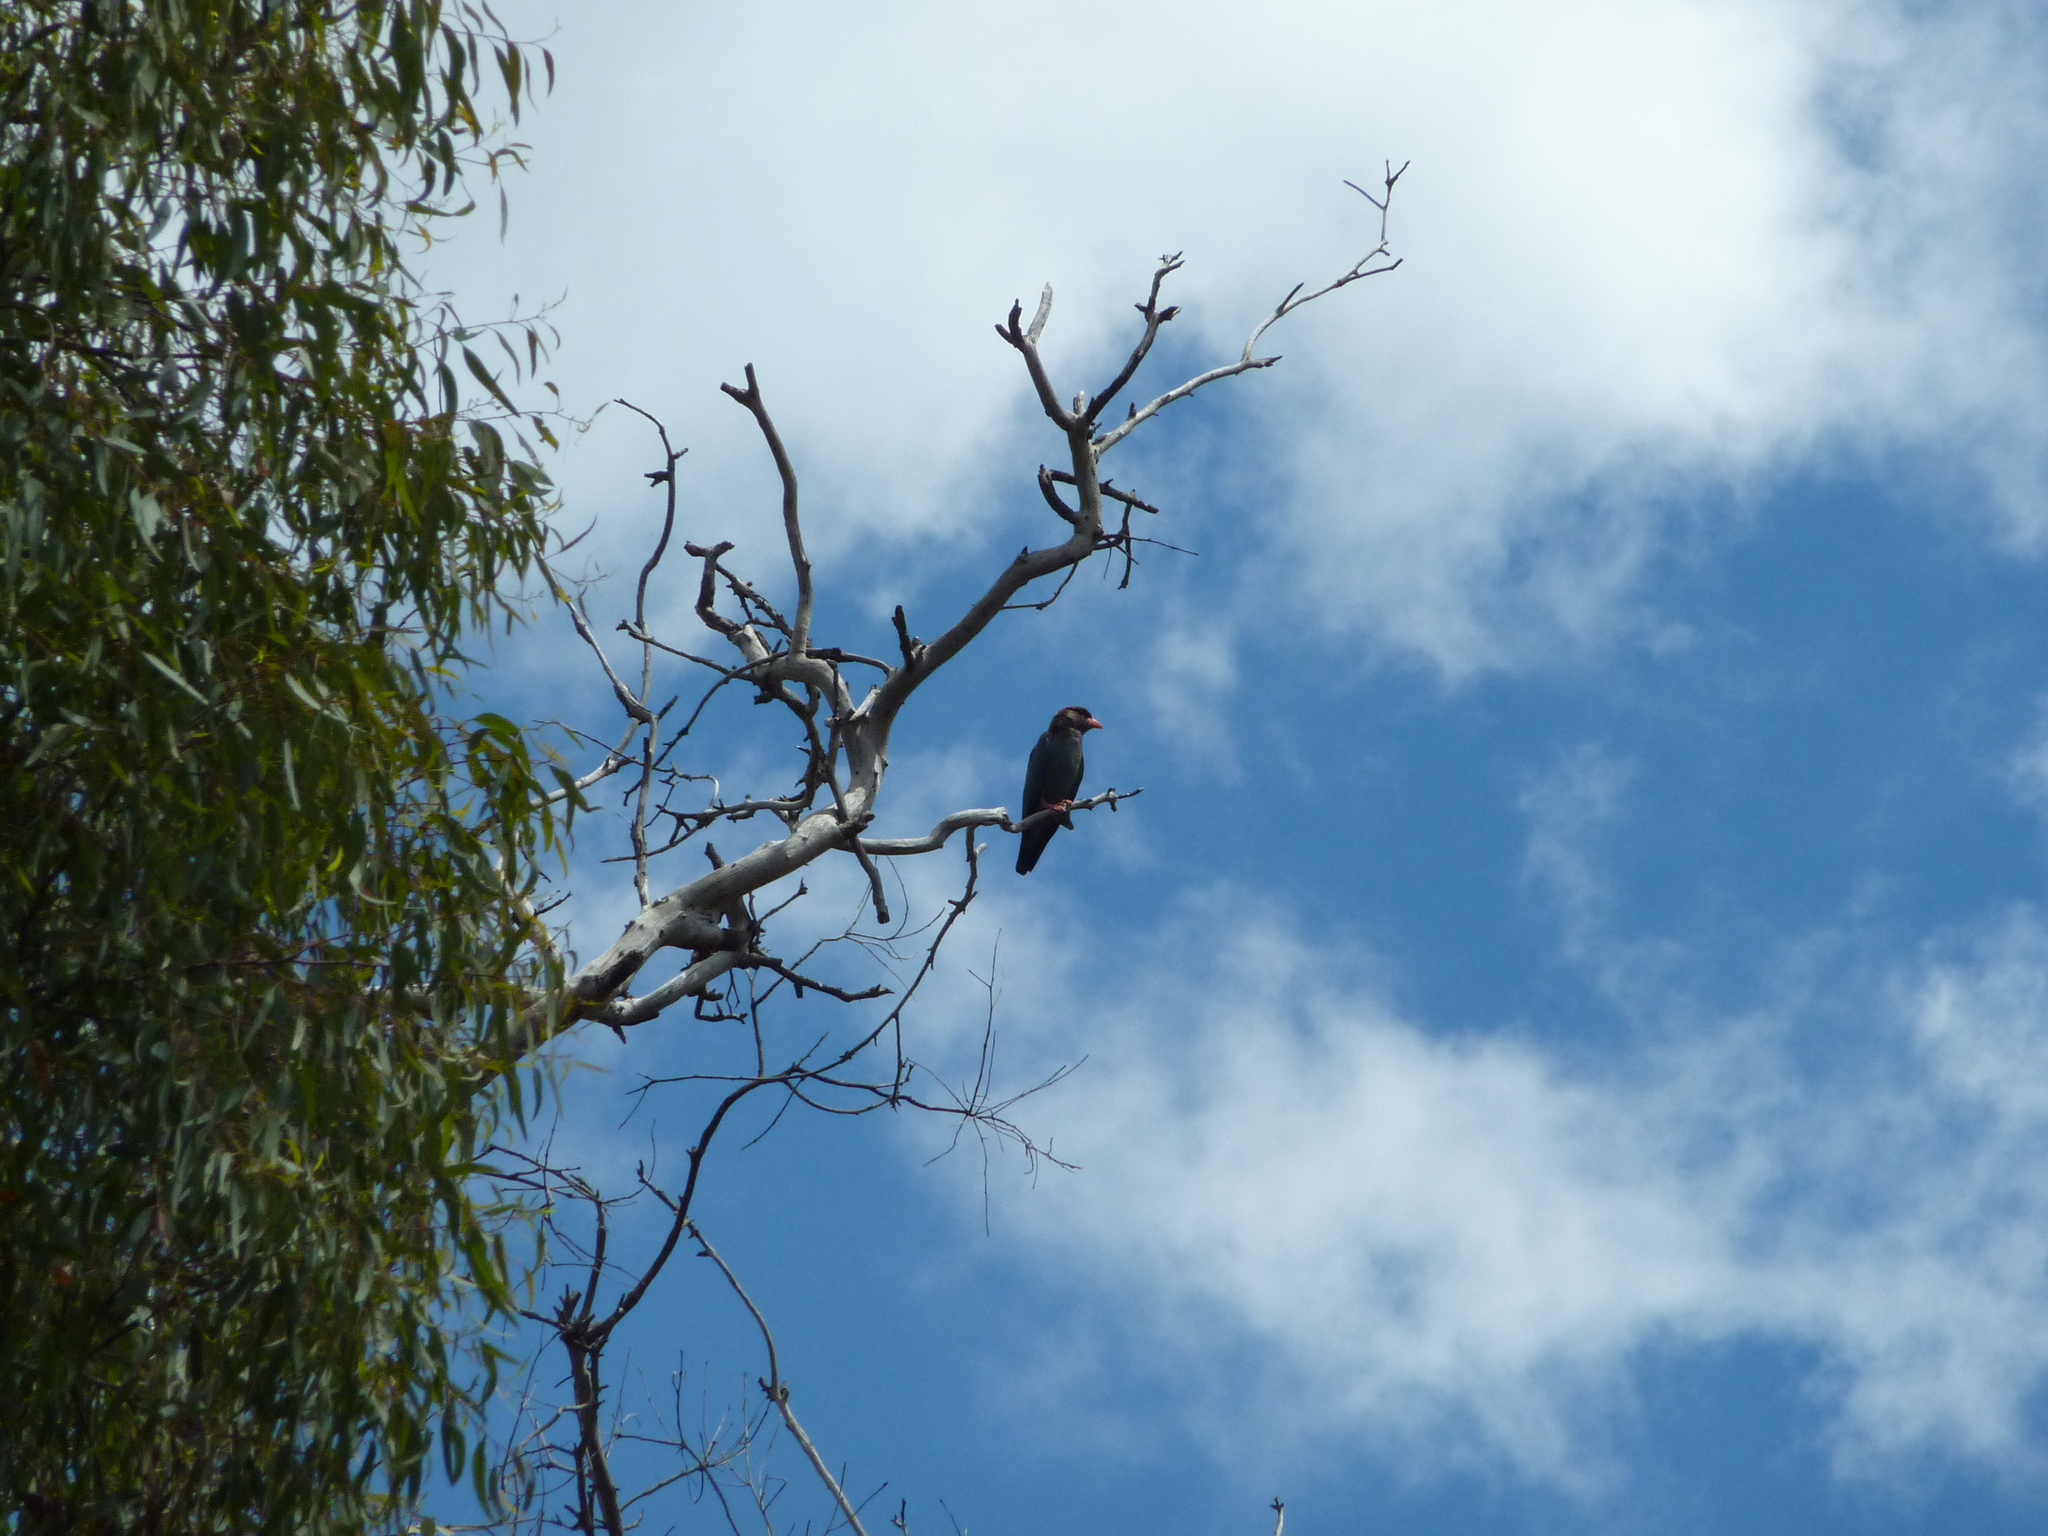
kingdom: Animalia
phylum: Chordata
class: Aves
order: Coraciiformes
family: Coraciidae
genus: Eurystomus
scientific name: Eurystomus orientalis
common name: Oriental dollarbird
